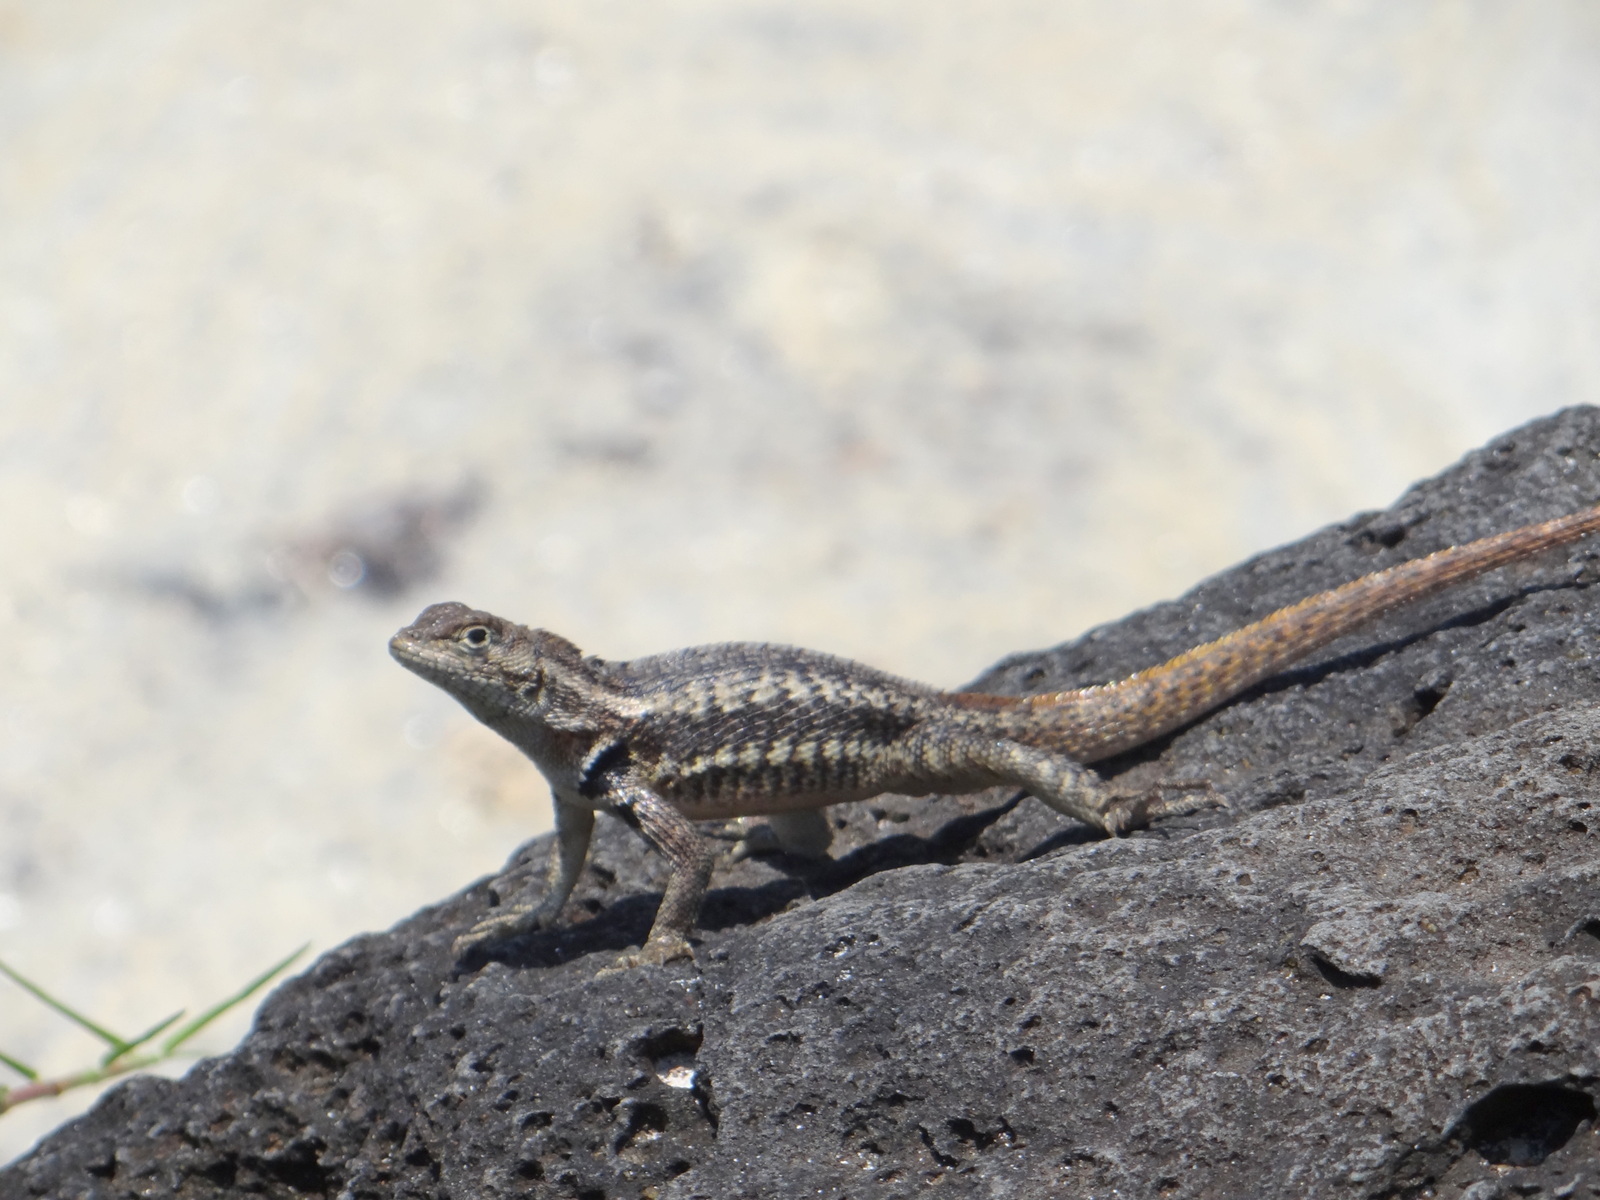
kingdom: Animalia
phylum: Chordata
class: Squamata
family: Tropiduridae
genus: Microlophus
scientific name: Microlophus bivittatus
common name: San cristobal lava lizard
